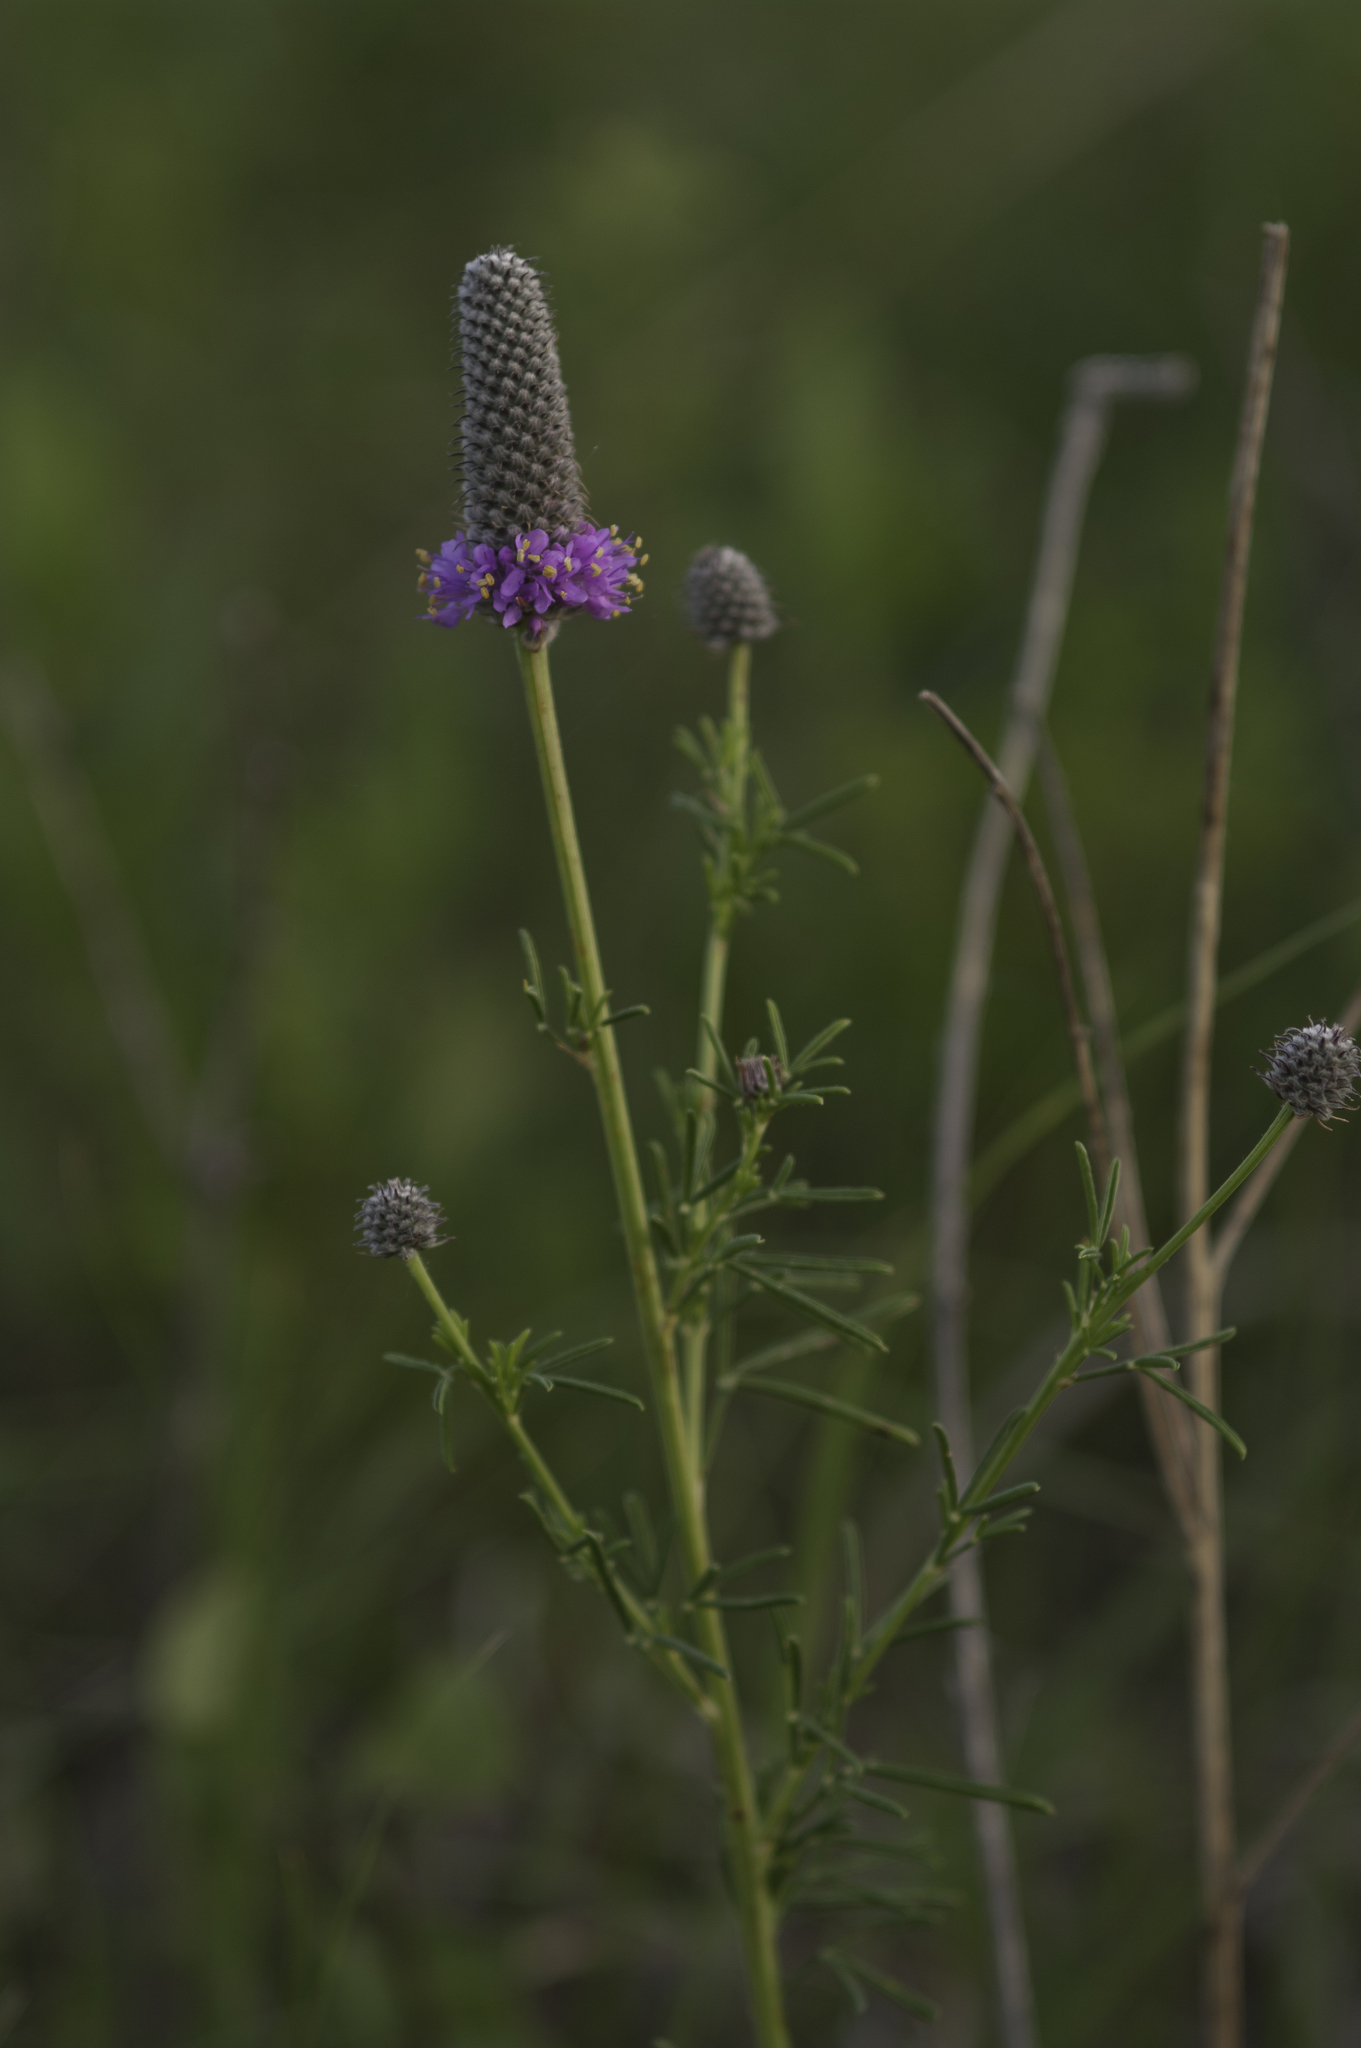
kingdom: Plantae
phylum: Tracheophyta
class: Magnoliopsida
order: Fabales
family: Fabaceae
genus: Dalea
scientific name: Dalea purpurea
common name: Purple prairie-clover
